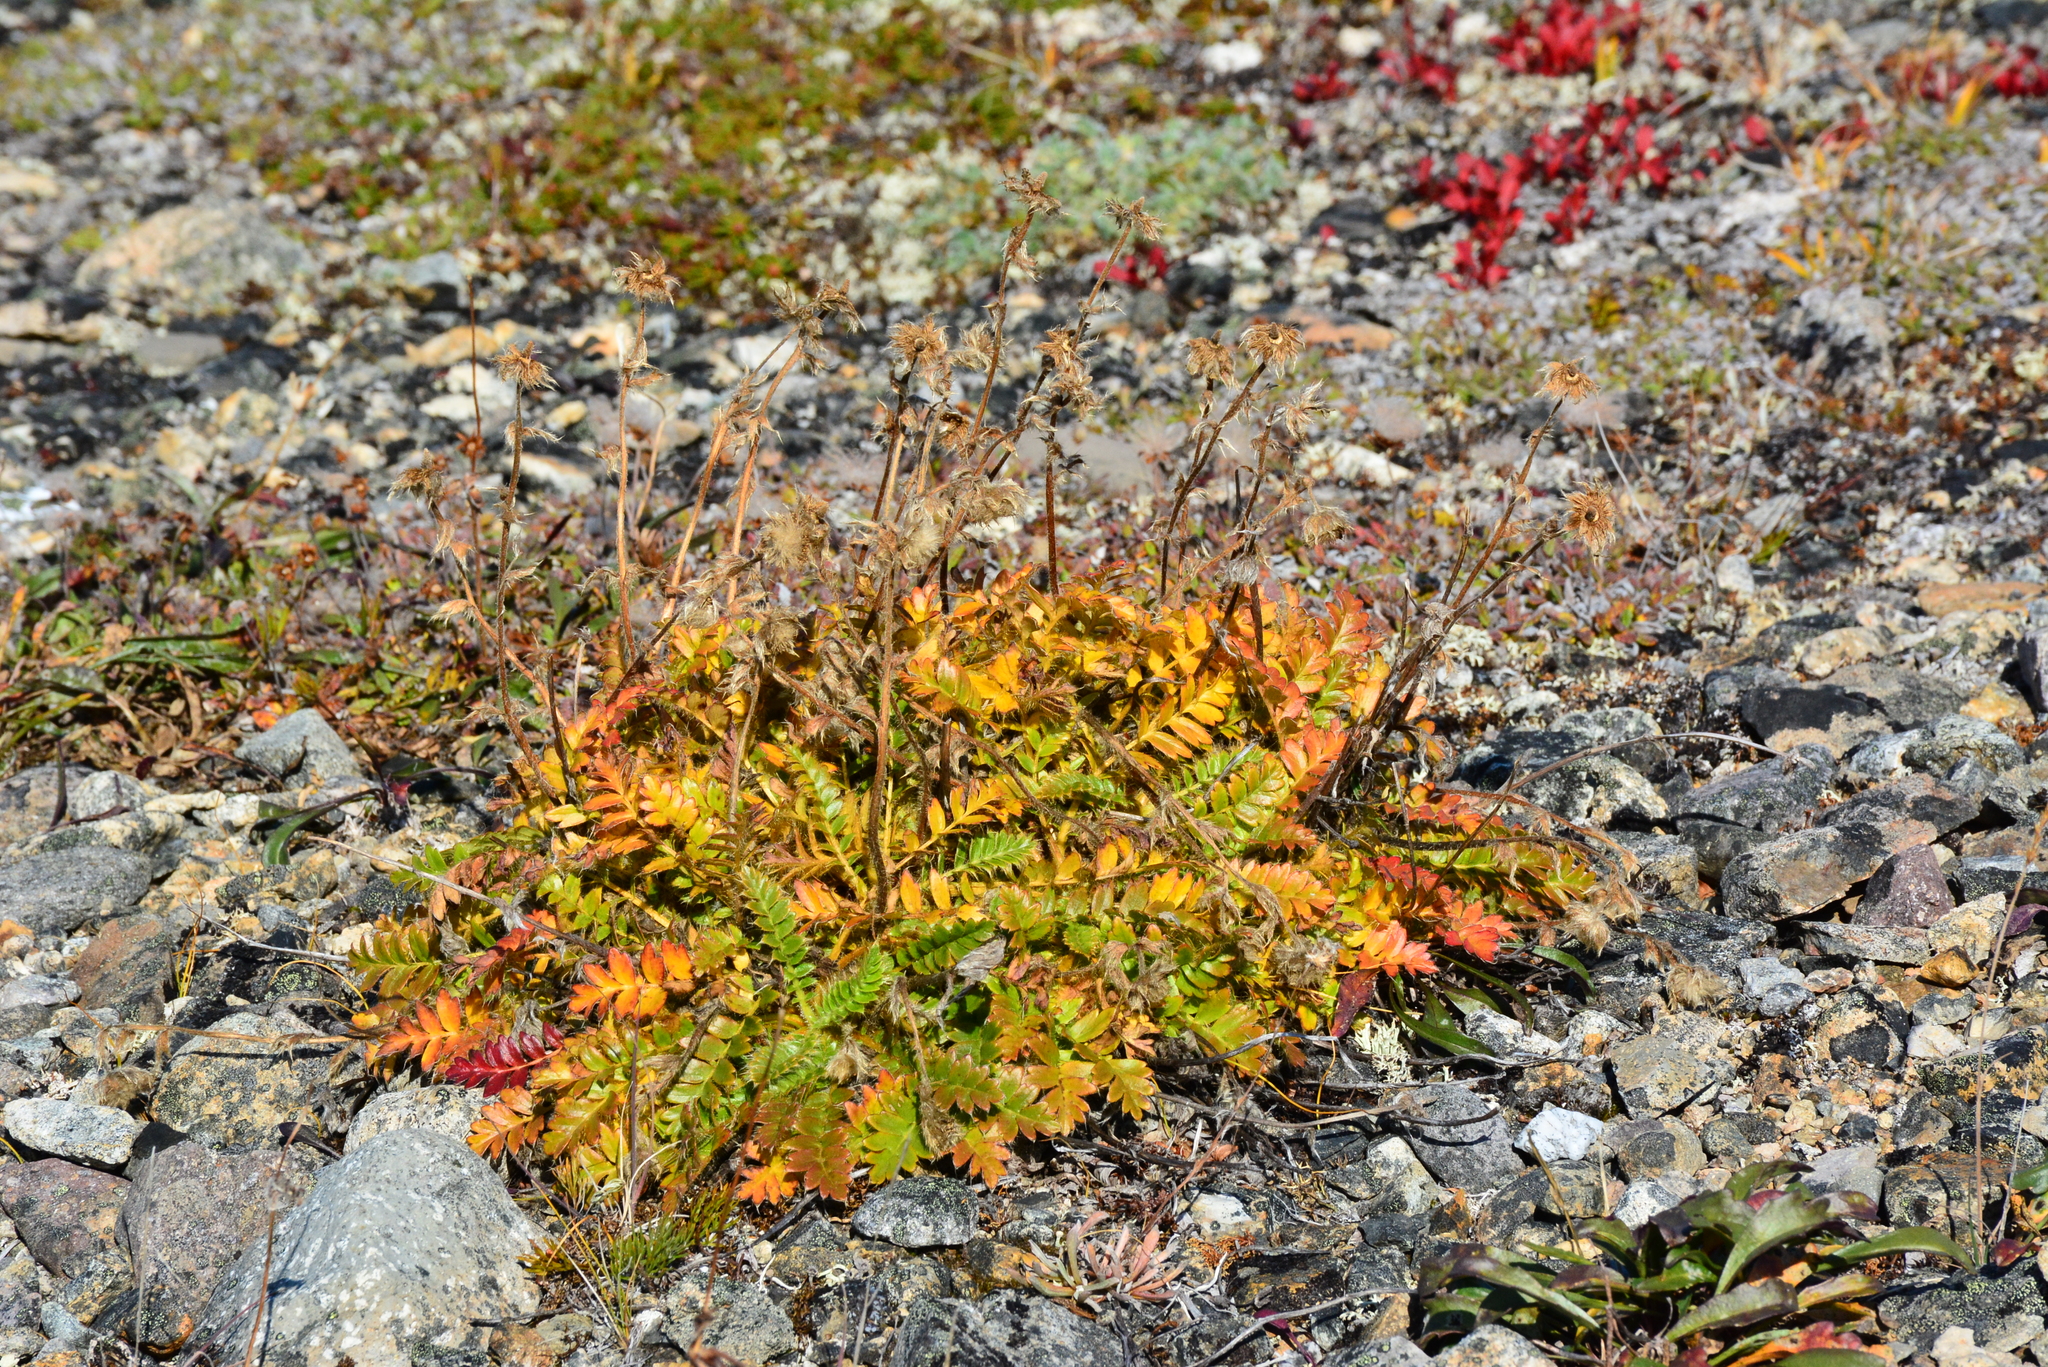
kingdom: Plantae
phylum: Tracheophyta
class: Magnoliopsida
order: Rosales
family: Rosaceae
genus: Geum
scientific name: Geum glaciale
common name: Glacier avens
